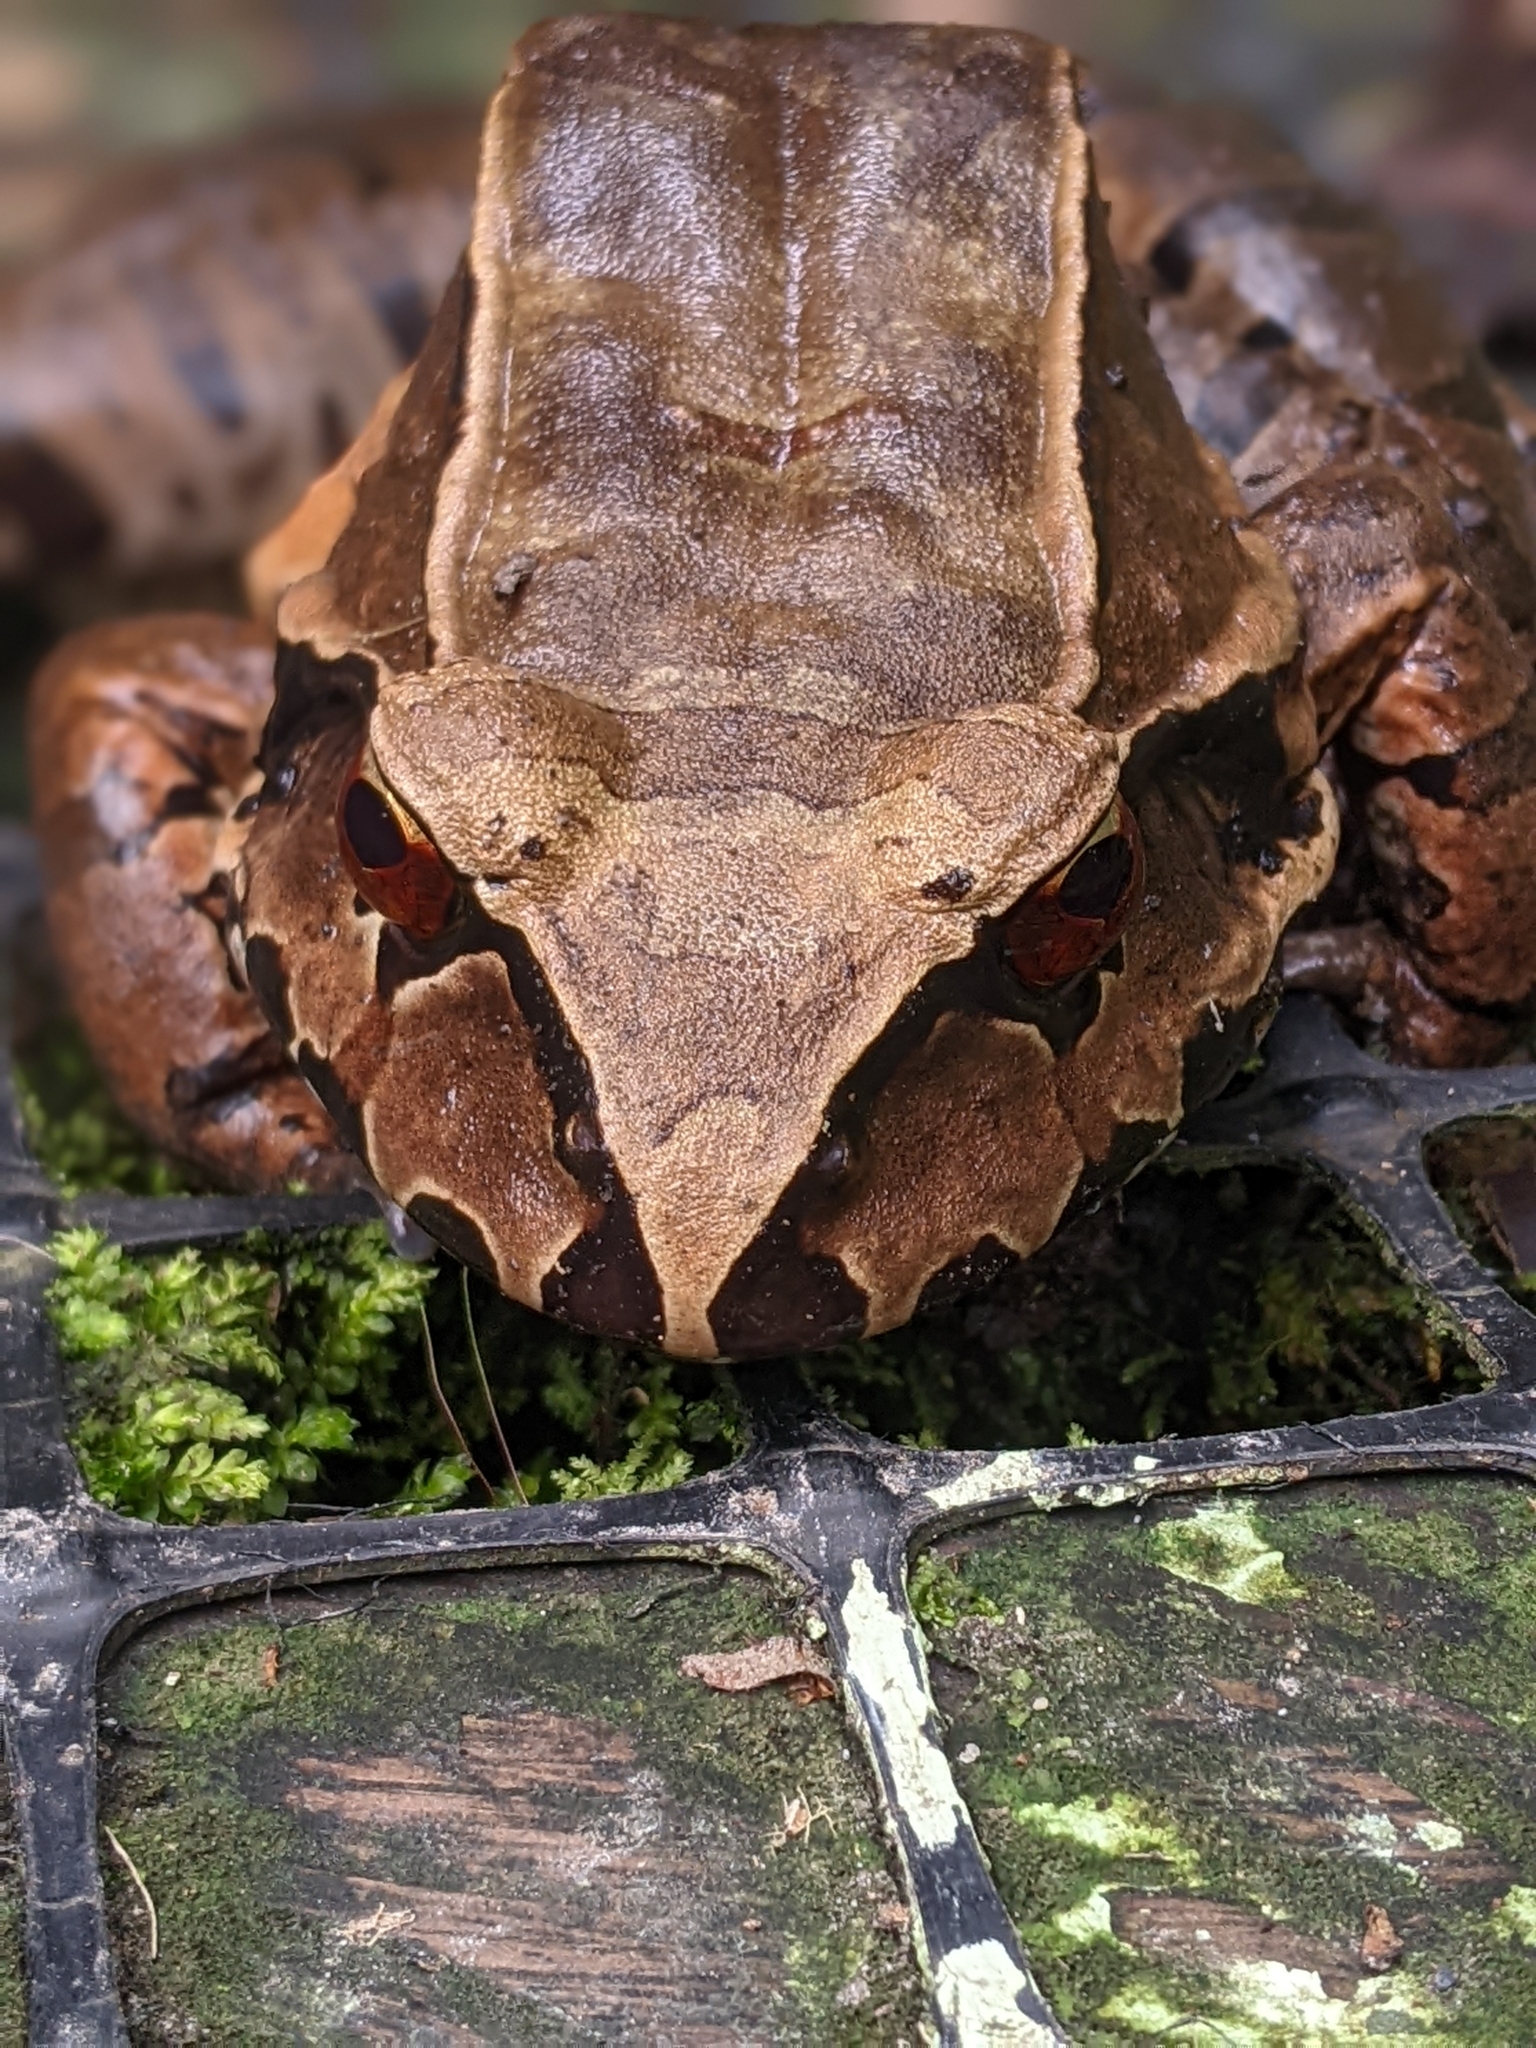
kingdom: Animalia
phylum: Chordata
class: Amphibia
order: Anura
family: Leptodactylidae
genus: Leptodactylus
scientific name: Leptodactylus pentadactylus
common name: Smoky jungle frog
